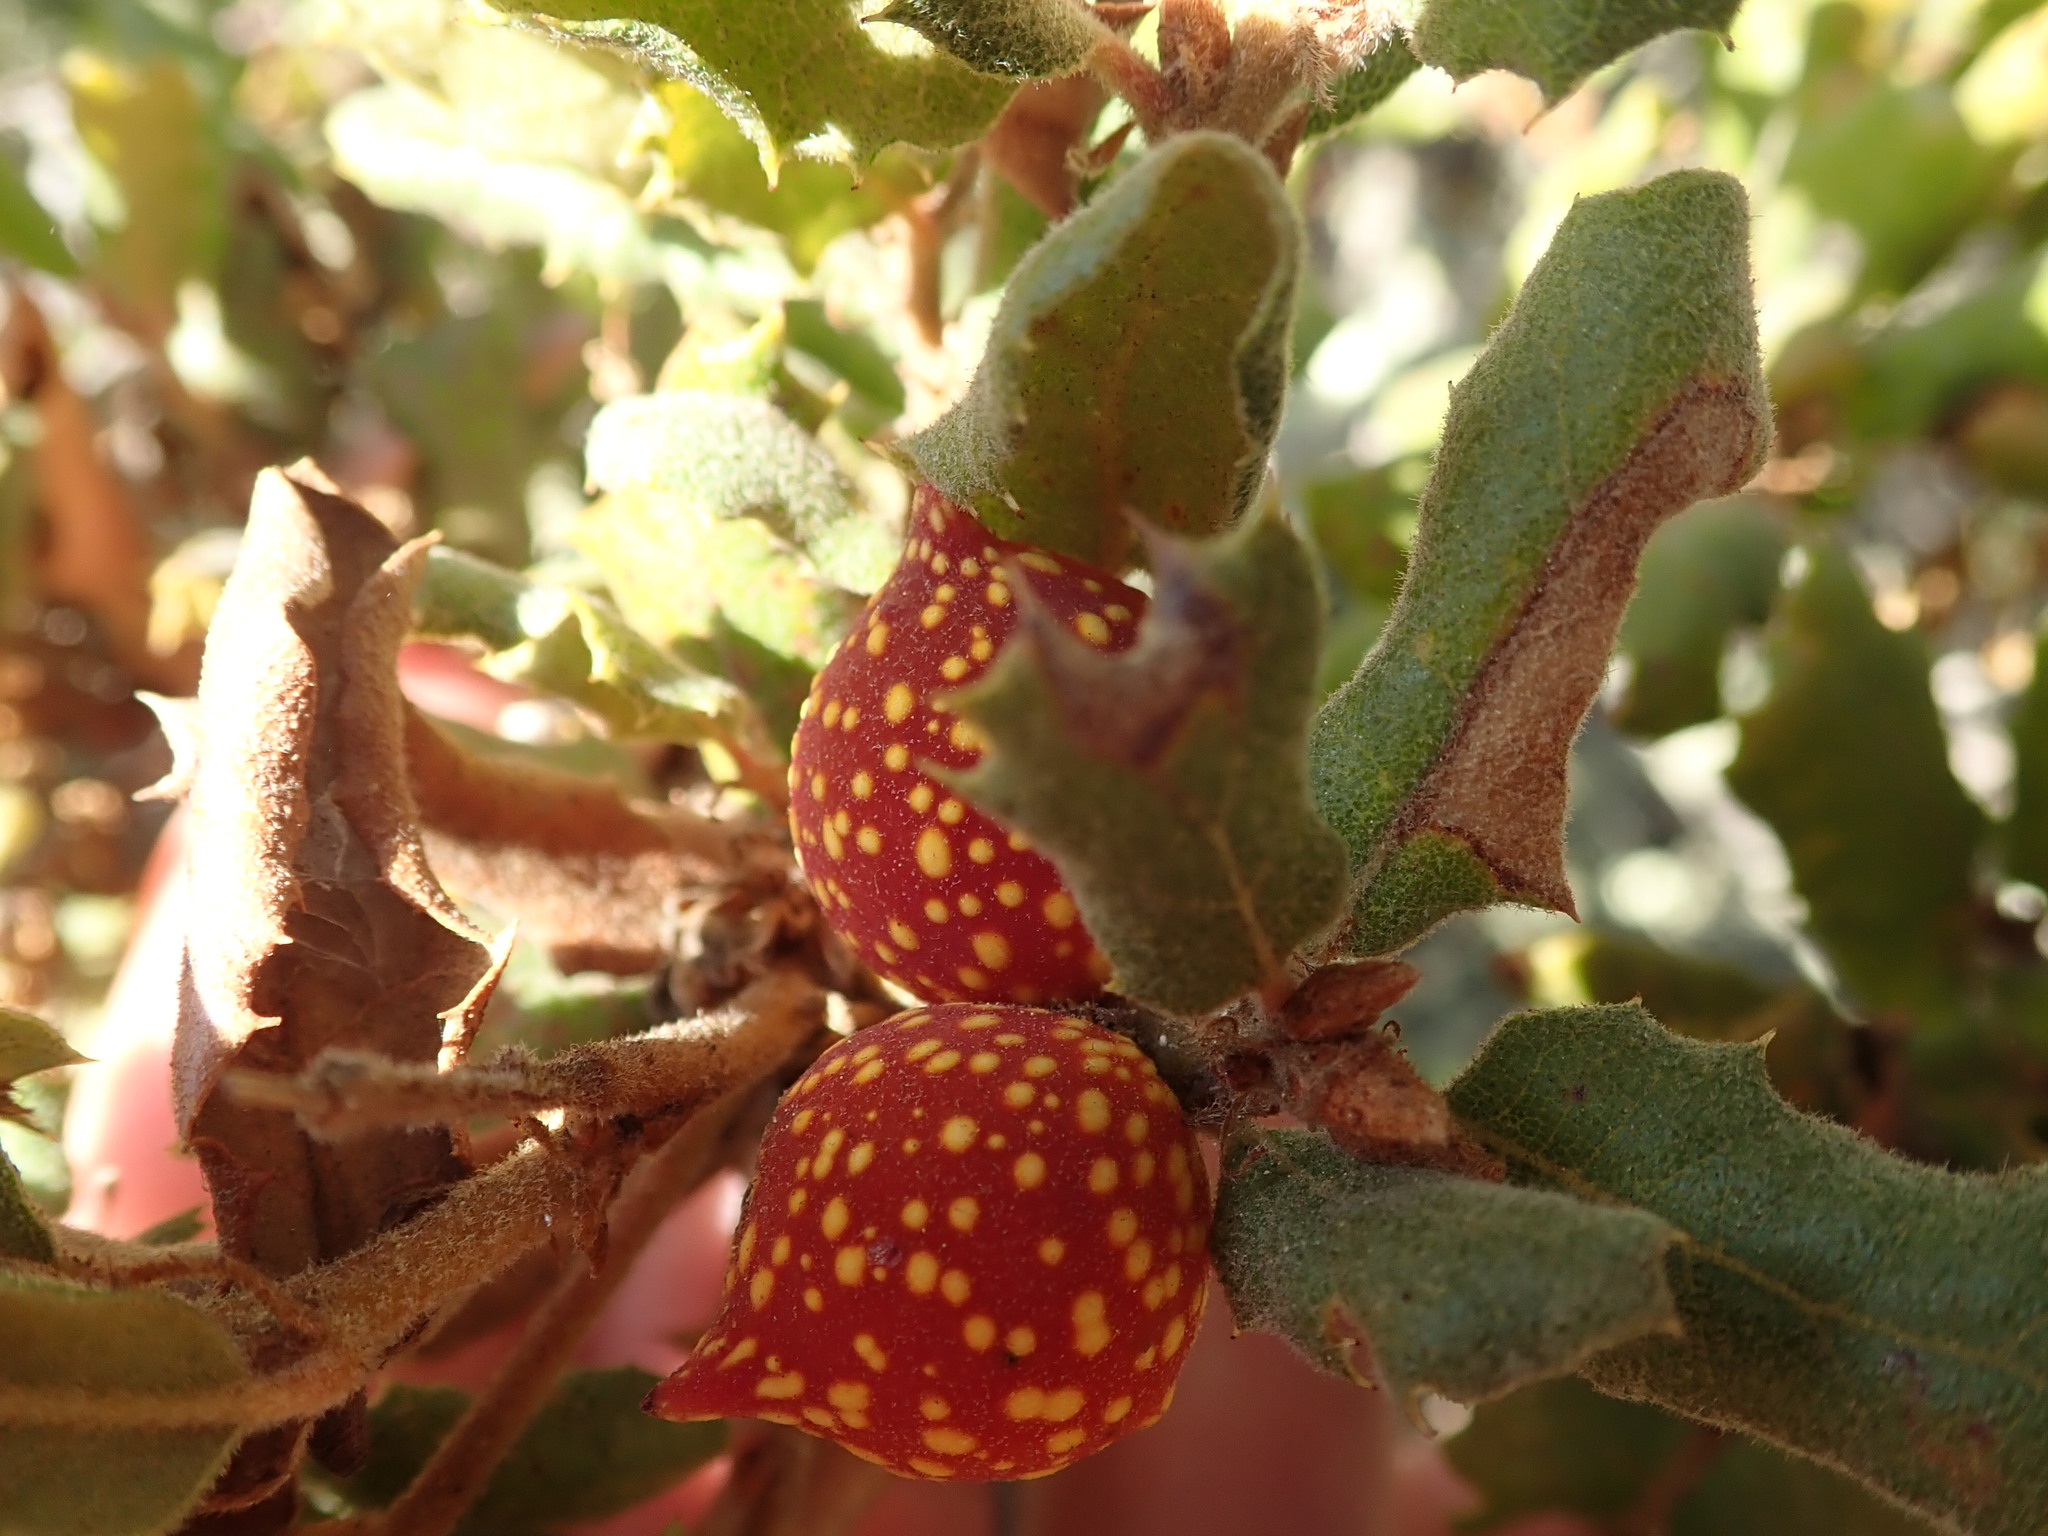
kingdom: Animalia
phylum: Arthropoda
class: Insecta
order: Hymenoptera
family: Cynipidae
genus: Burnettweldia
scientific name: Burnettweldia
